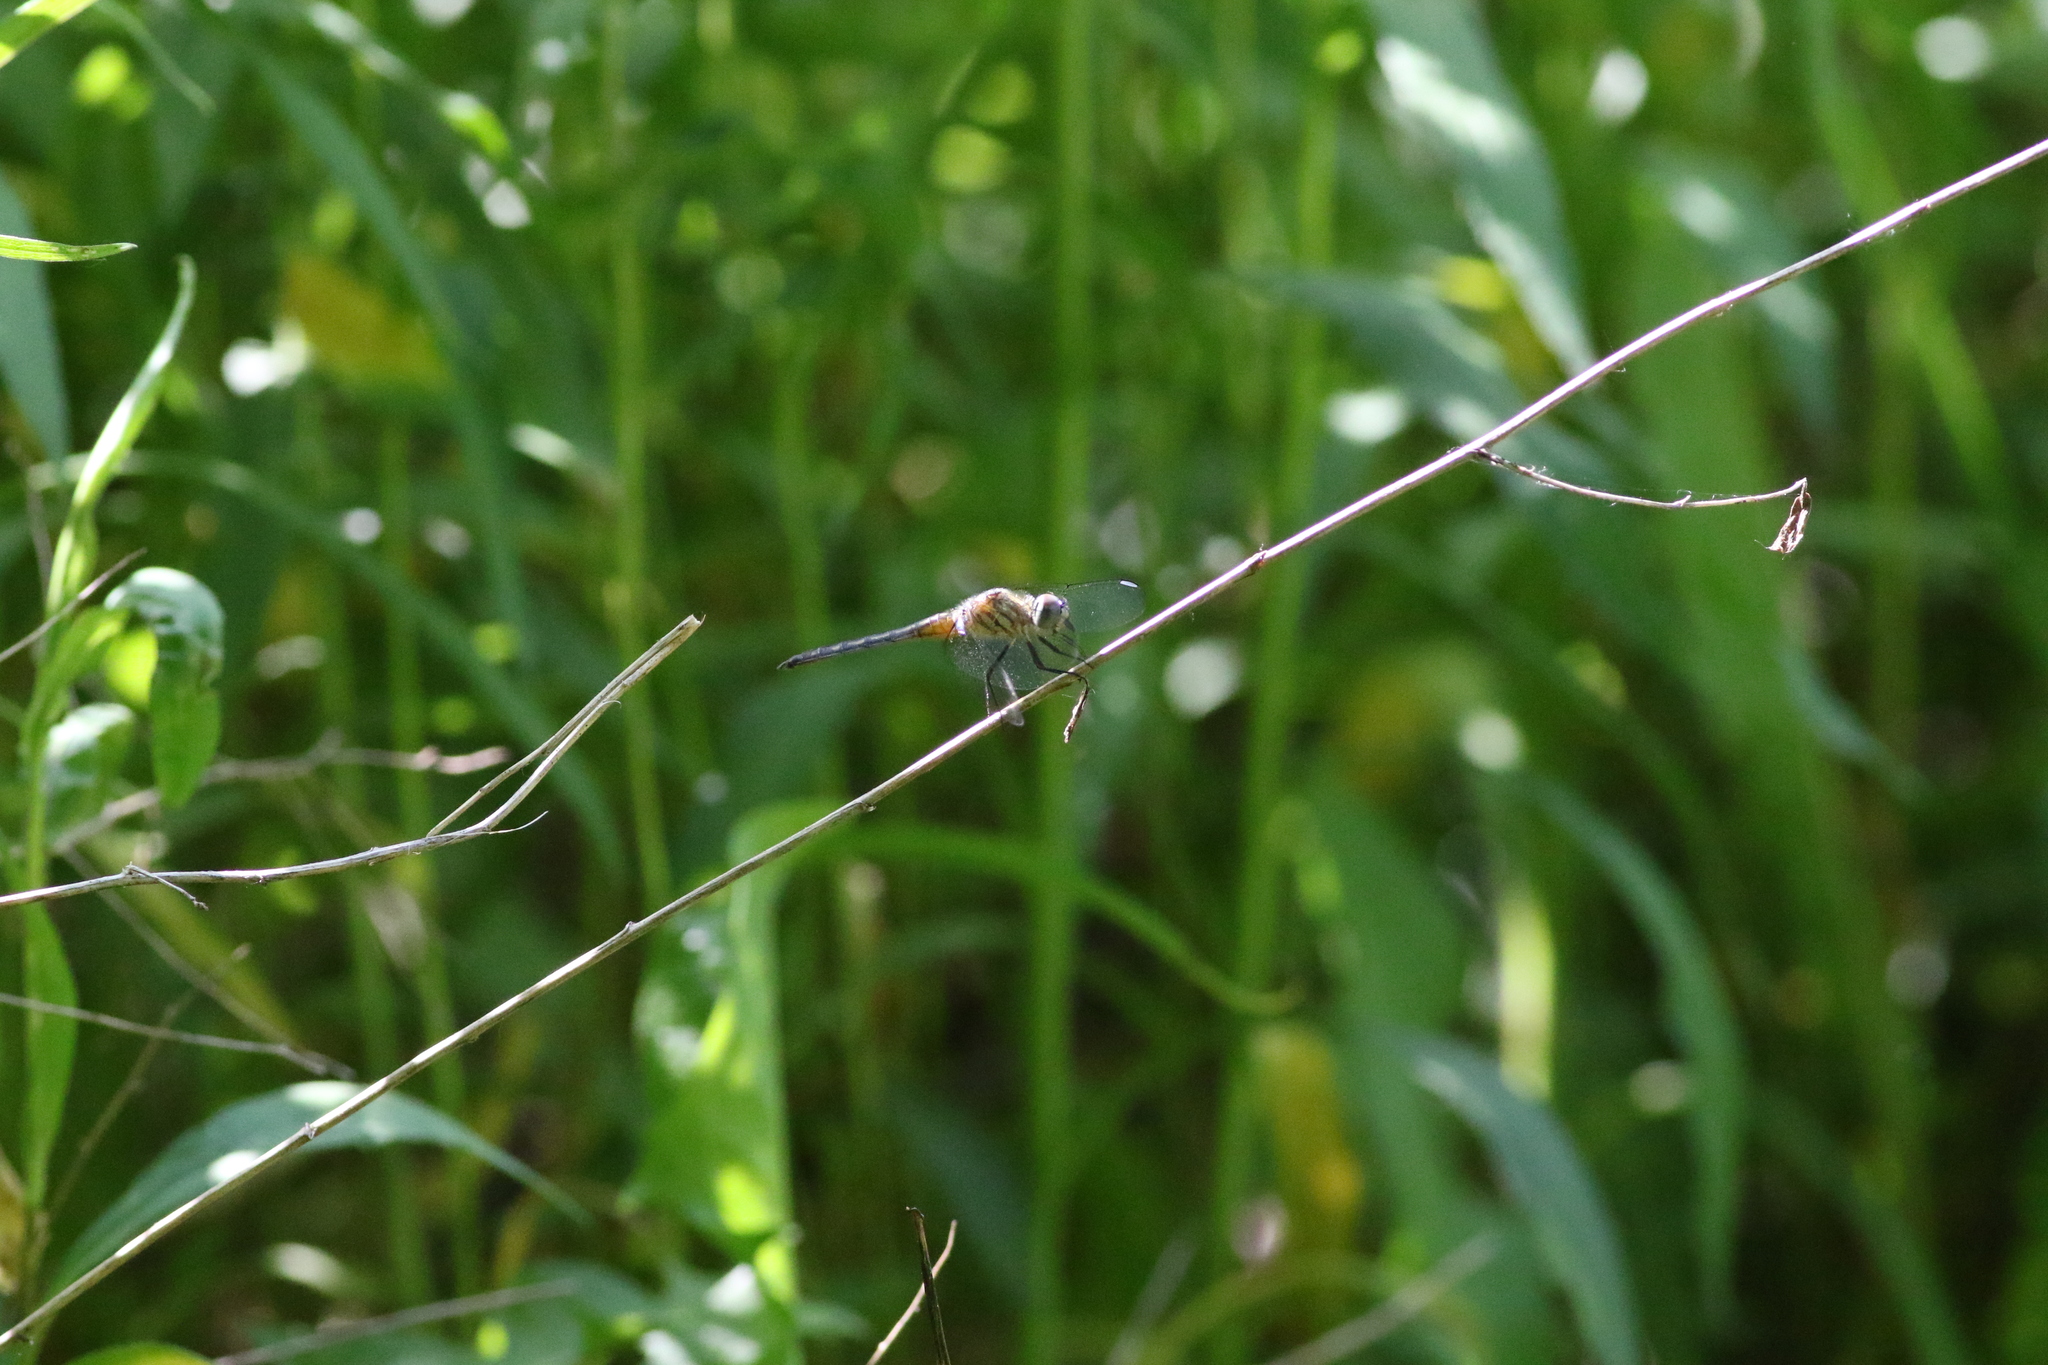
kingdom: Animalia
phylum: Arthropoda
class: Insecta
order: Odonata
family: Libellulidae
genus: Pachydiplax
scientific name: Pachydiplax longipennis
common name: Blue dasher
